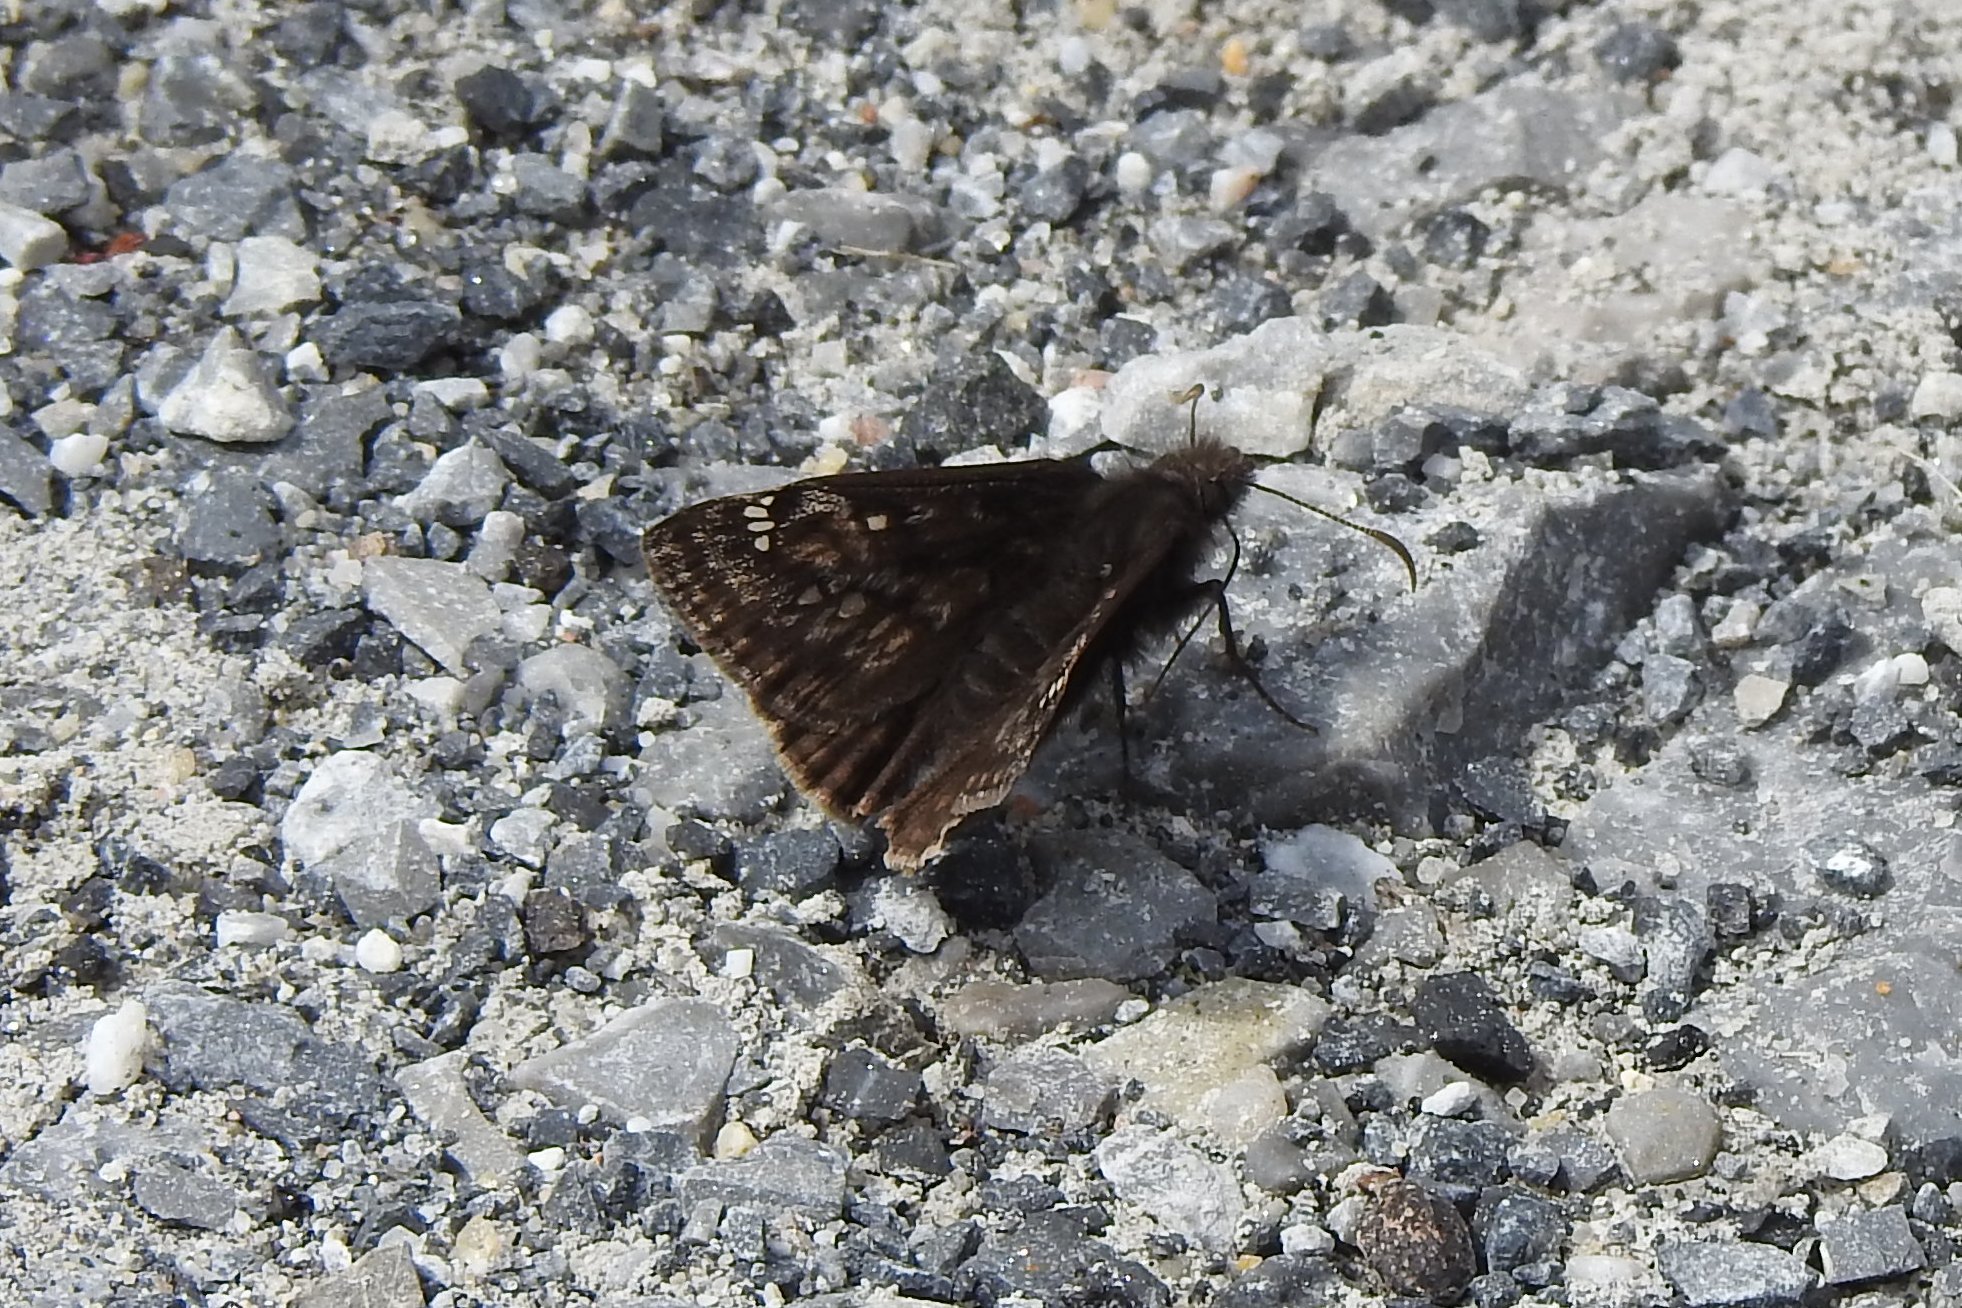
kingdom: Animalia
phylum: Arthropoda
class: Insecta
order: Lepidoptera
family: Hesperiidae
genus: Erynnis
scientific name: Erynnis juvenalis
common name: Juvenal's duskywing
